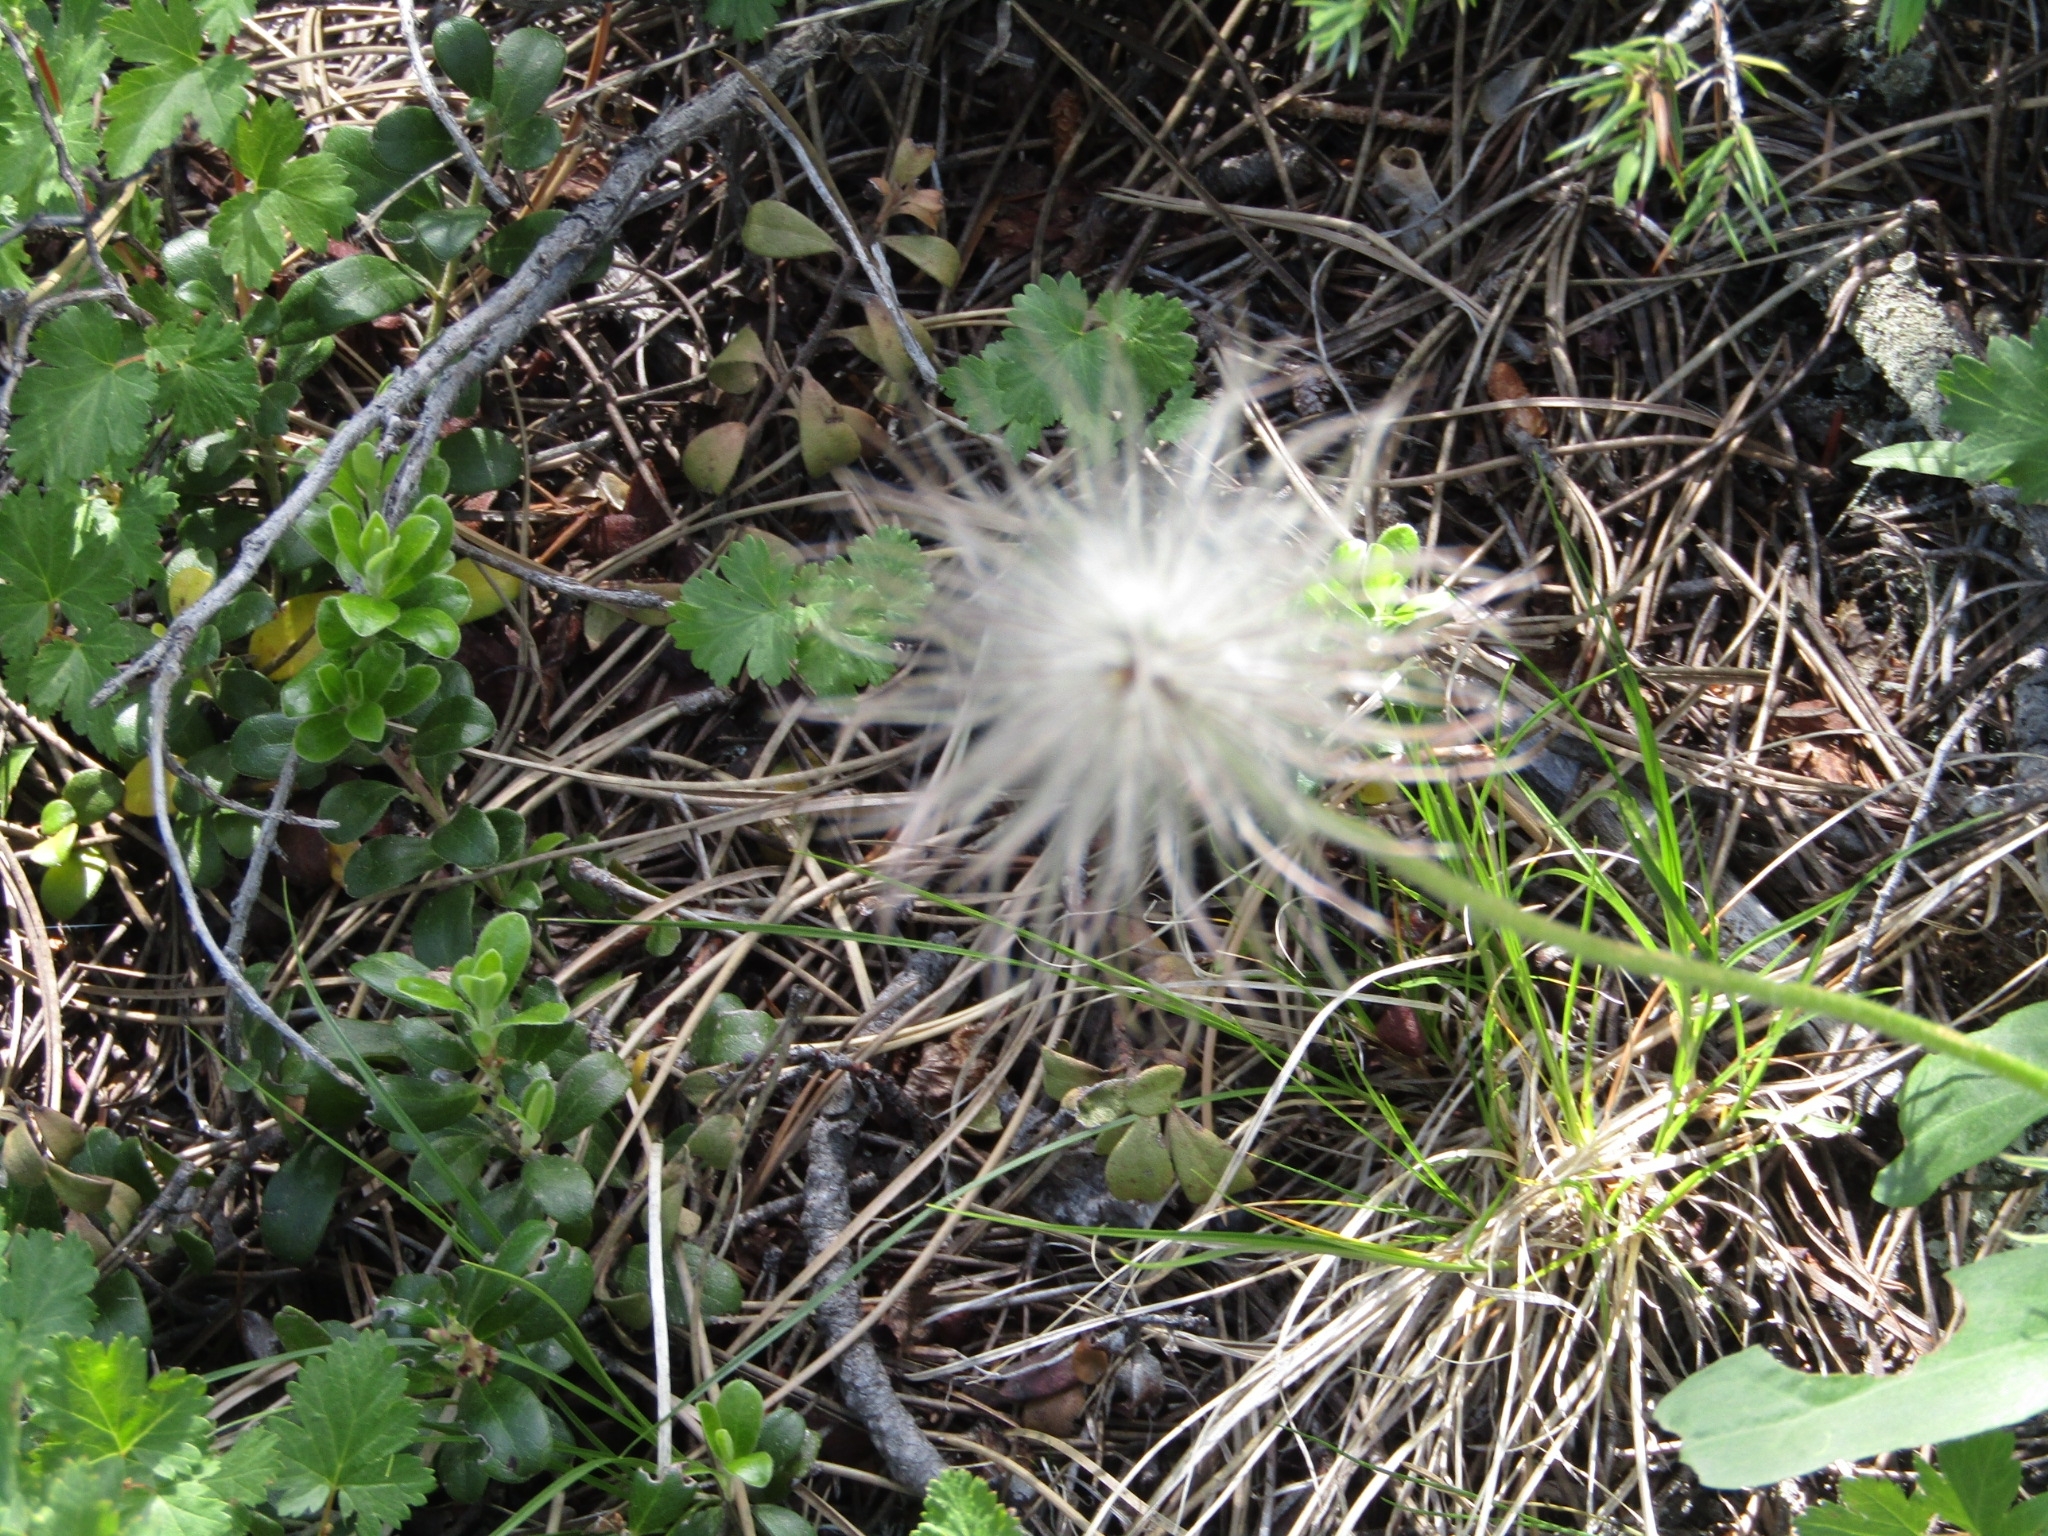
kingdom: Plantae
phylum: Tracheophyta
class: Magnoliopsida
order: Ranunculales
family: Ranunculaceae
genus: Pulsatilla
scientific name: Pulsatilla nuttalliana
